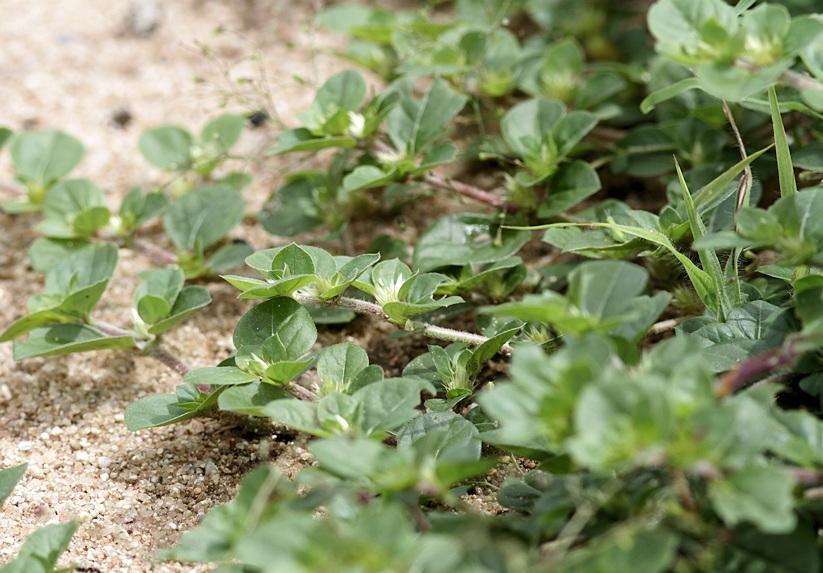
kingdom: Plantae
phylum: Tracheophyta
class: Magnoliopsida
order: Caryophyllales
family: Amaranthaceae
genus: Alternanthera
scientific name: Alternanthera pungens
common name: Khakiweed
